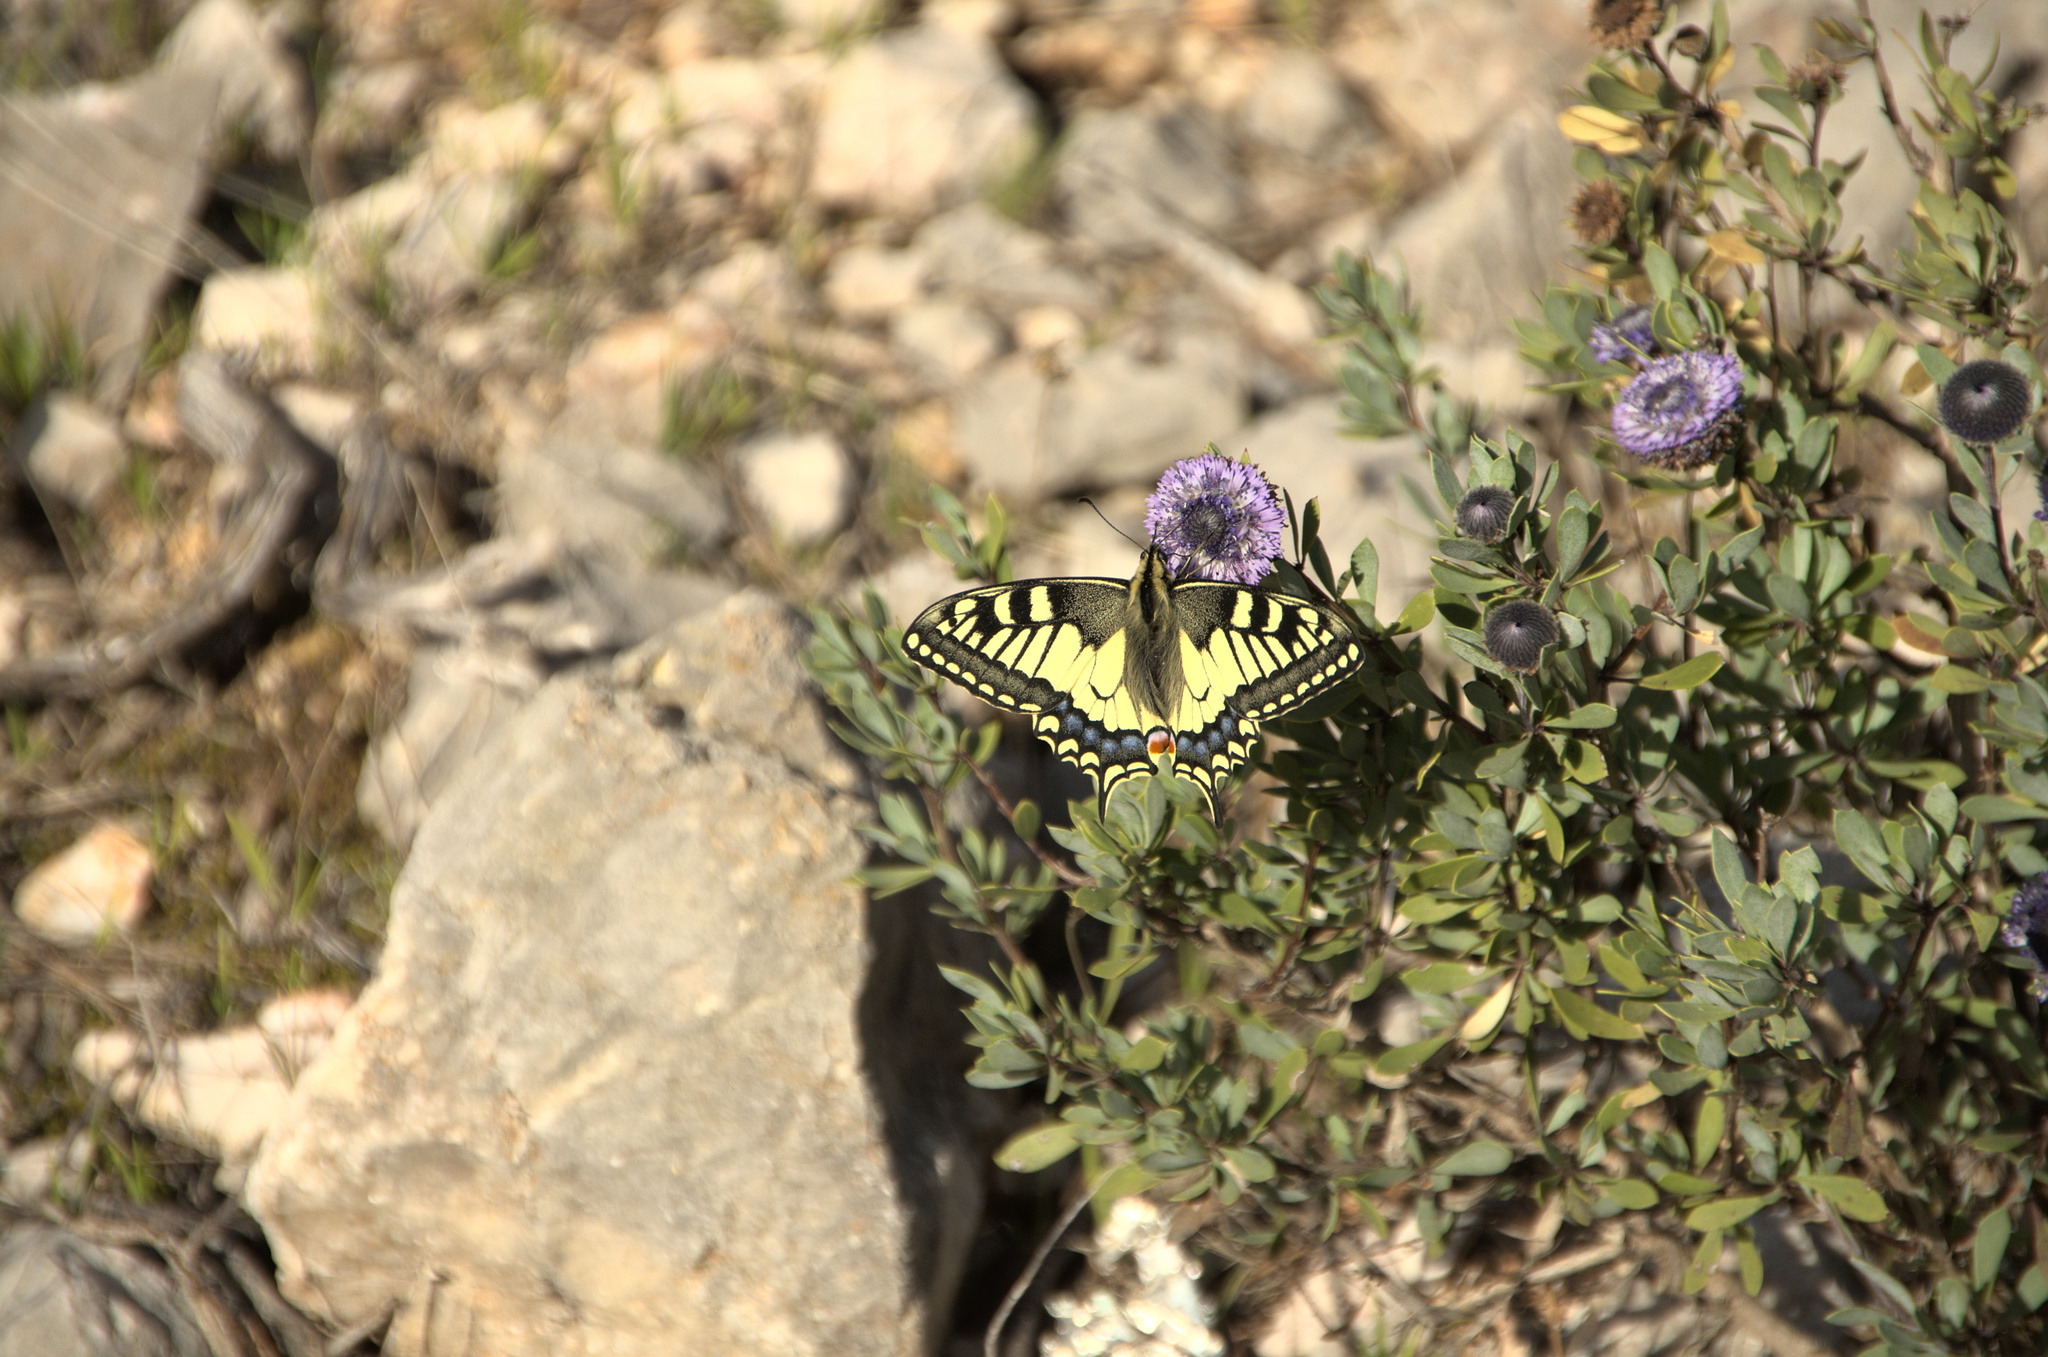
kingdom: Animalia
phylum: Arthropoda
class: Insecta
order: Lepidoptera
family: Papilionidae
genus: Papilio
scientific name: Papilio machaon
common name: Swallowtail
